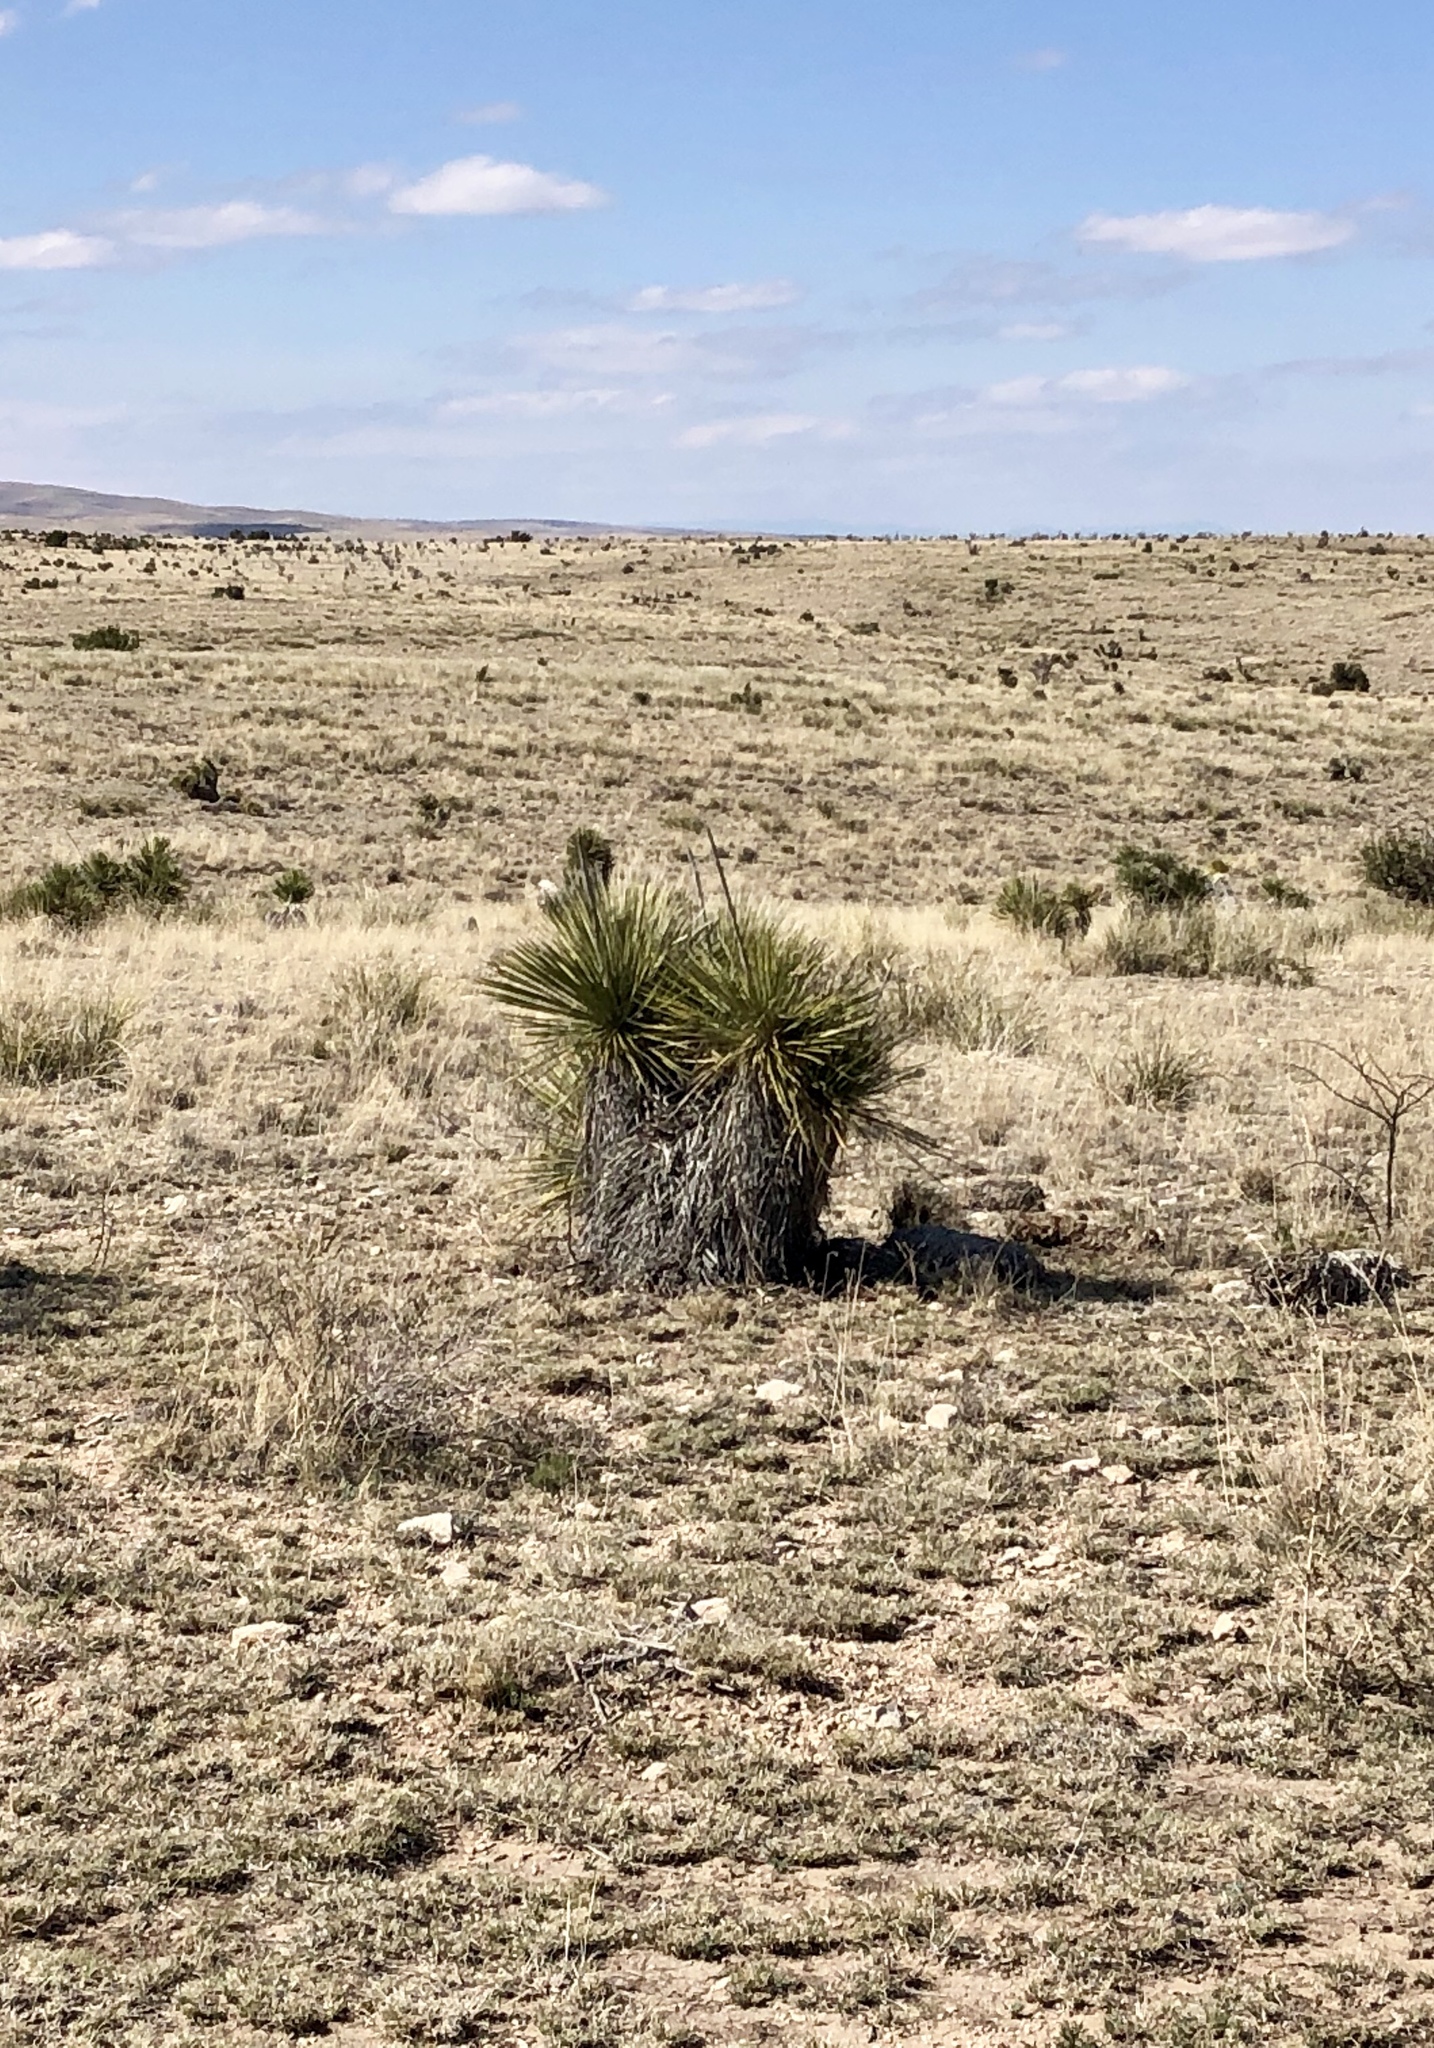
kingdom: Plantae
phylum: Tracheophyta
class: Liliopsida
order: Asparagales
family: Asparagaceae
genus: Yucca
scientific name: Yucca elata
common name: Palmella
